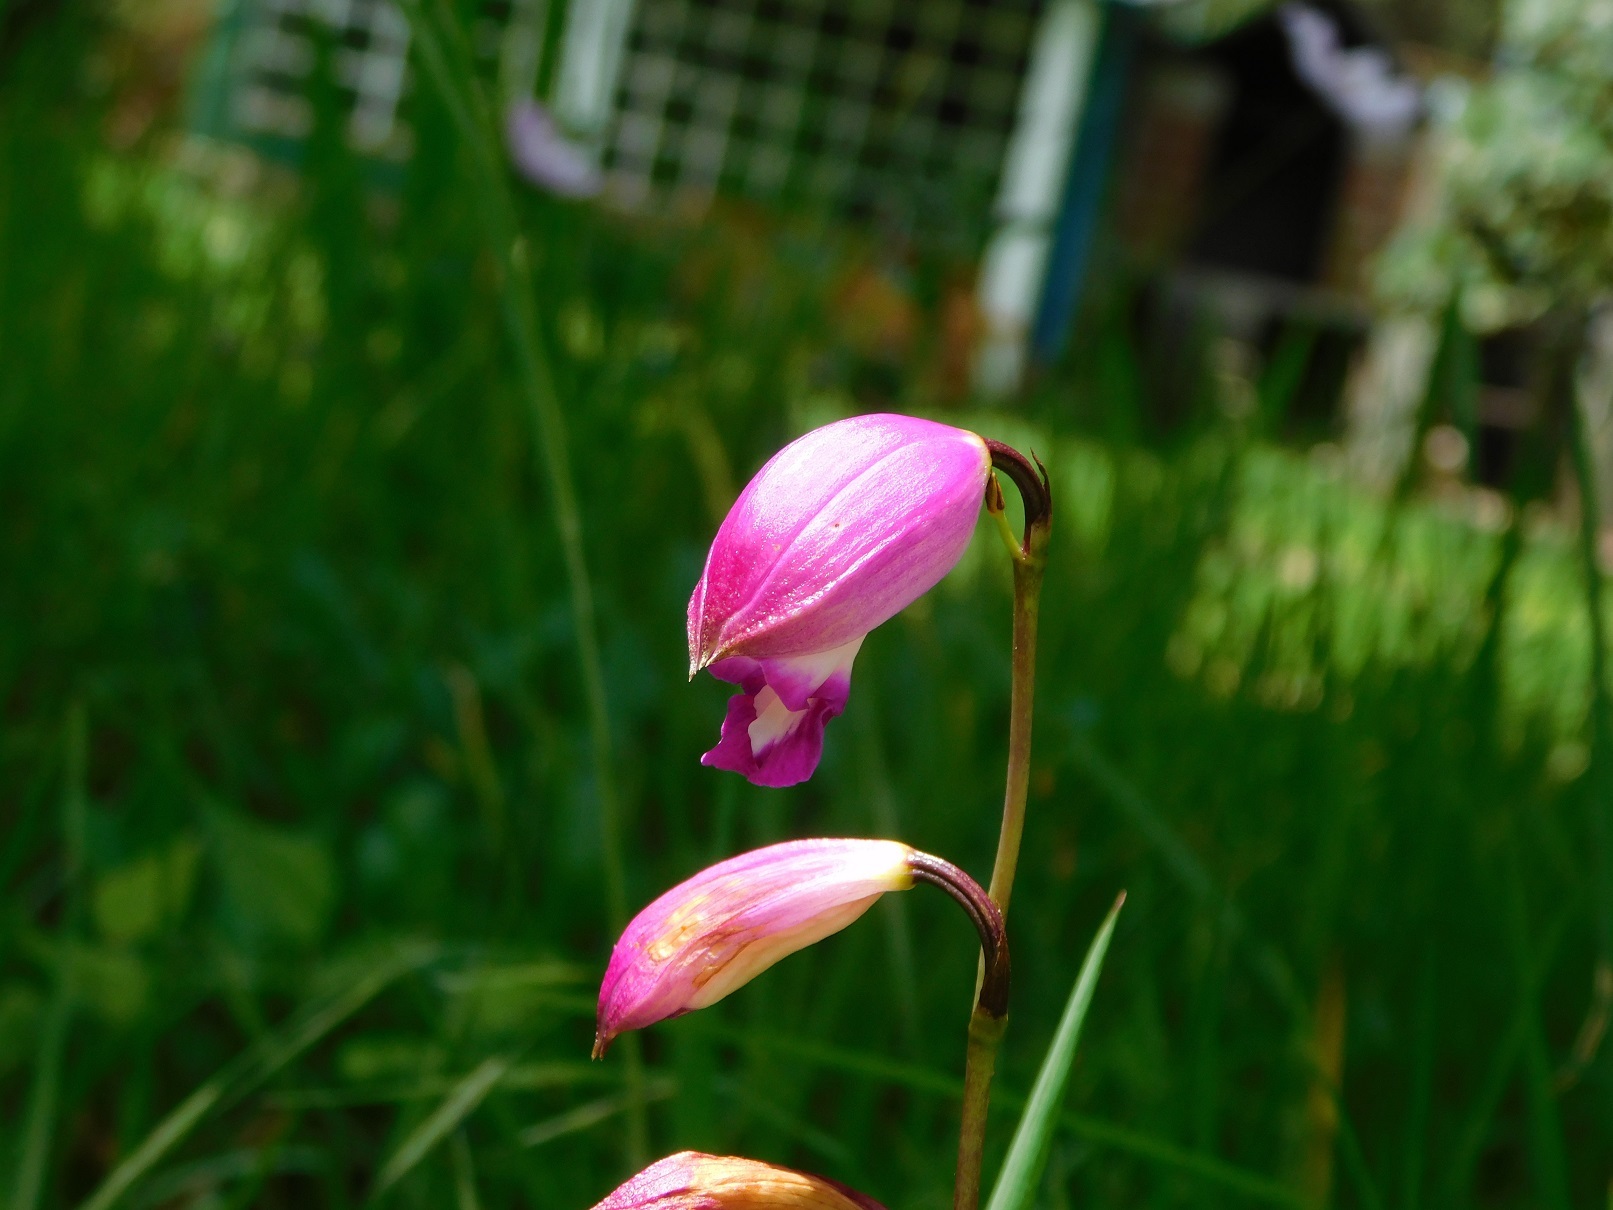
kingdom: Plantae
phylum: Tracheophyta
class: Liliopsida
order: Asparagales
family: Orchidaceae
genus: Bletia
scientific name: Bletia campanulata
